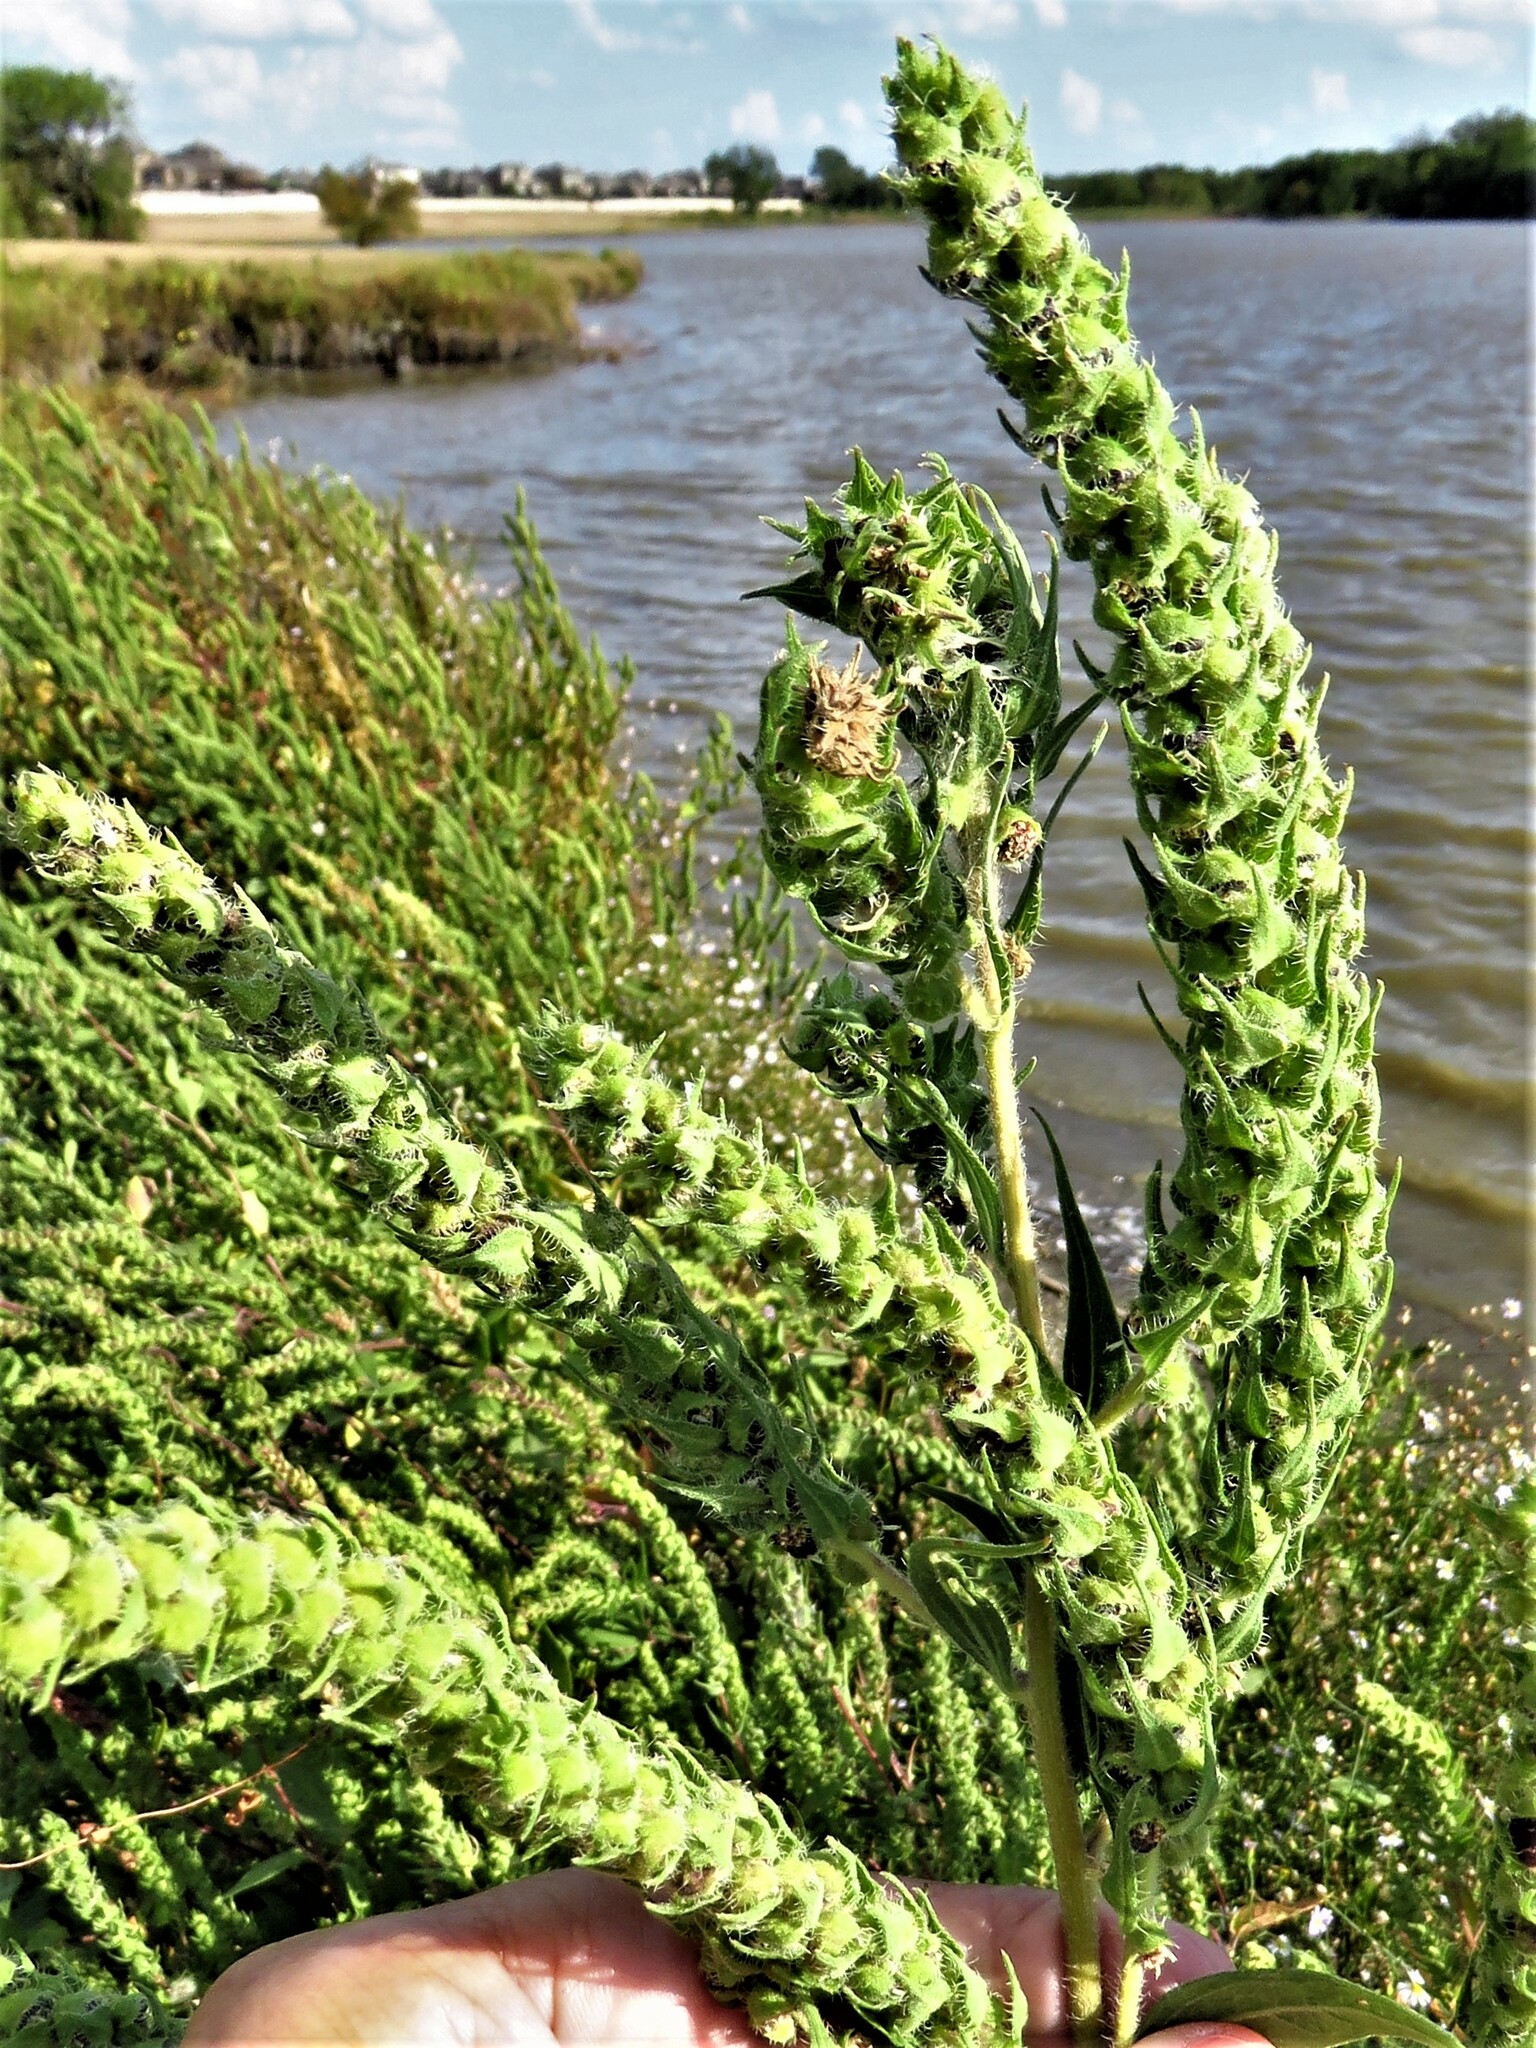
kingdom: Plantae
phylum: Tracheophyta
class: Magnoliopsida
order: Asterales
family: Asteraceae
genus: Iva
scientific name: Iva annua
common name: Marsh-elder
